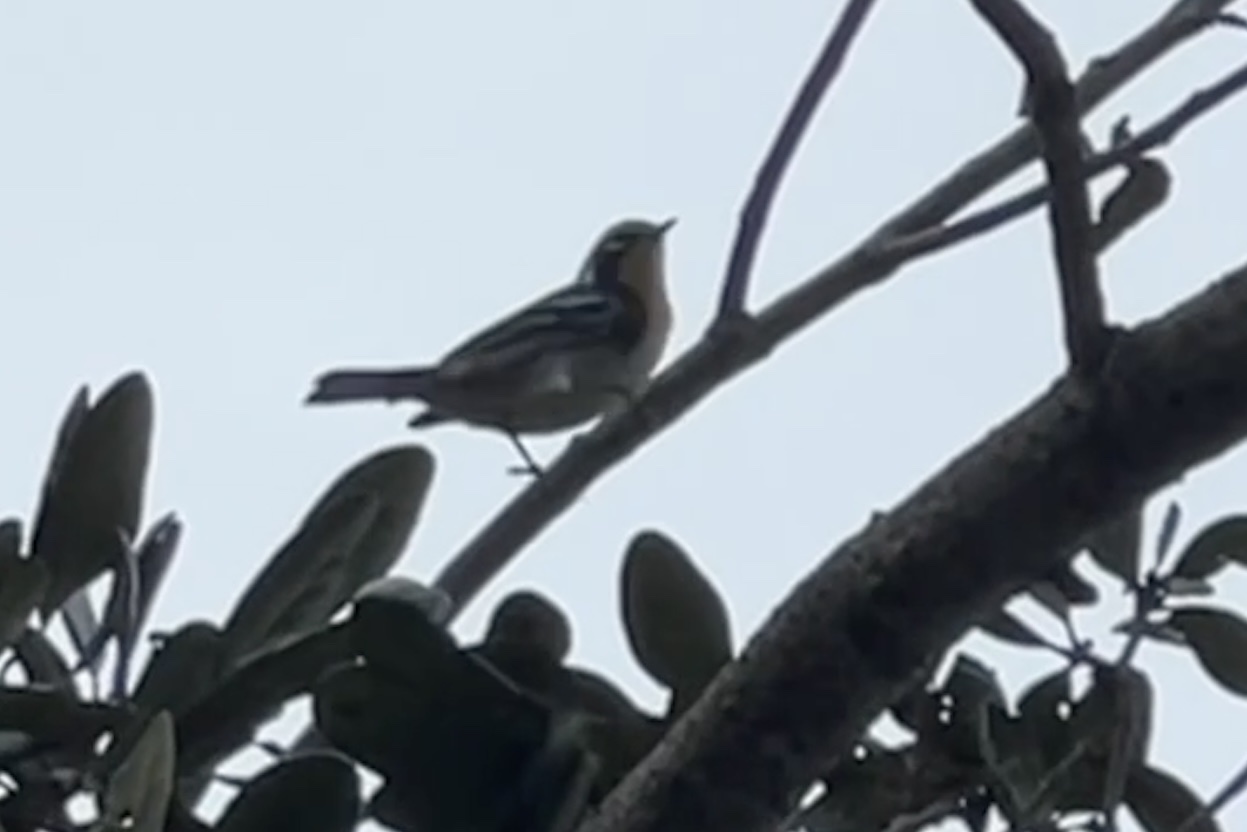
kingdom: Animalia
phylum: Chordata
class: Aves
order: Passeriformes
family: Parulidae
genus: Setophaga
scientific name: Setophaga dominica
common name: Yellow-throated warbler
